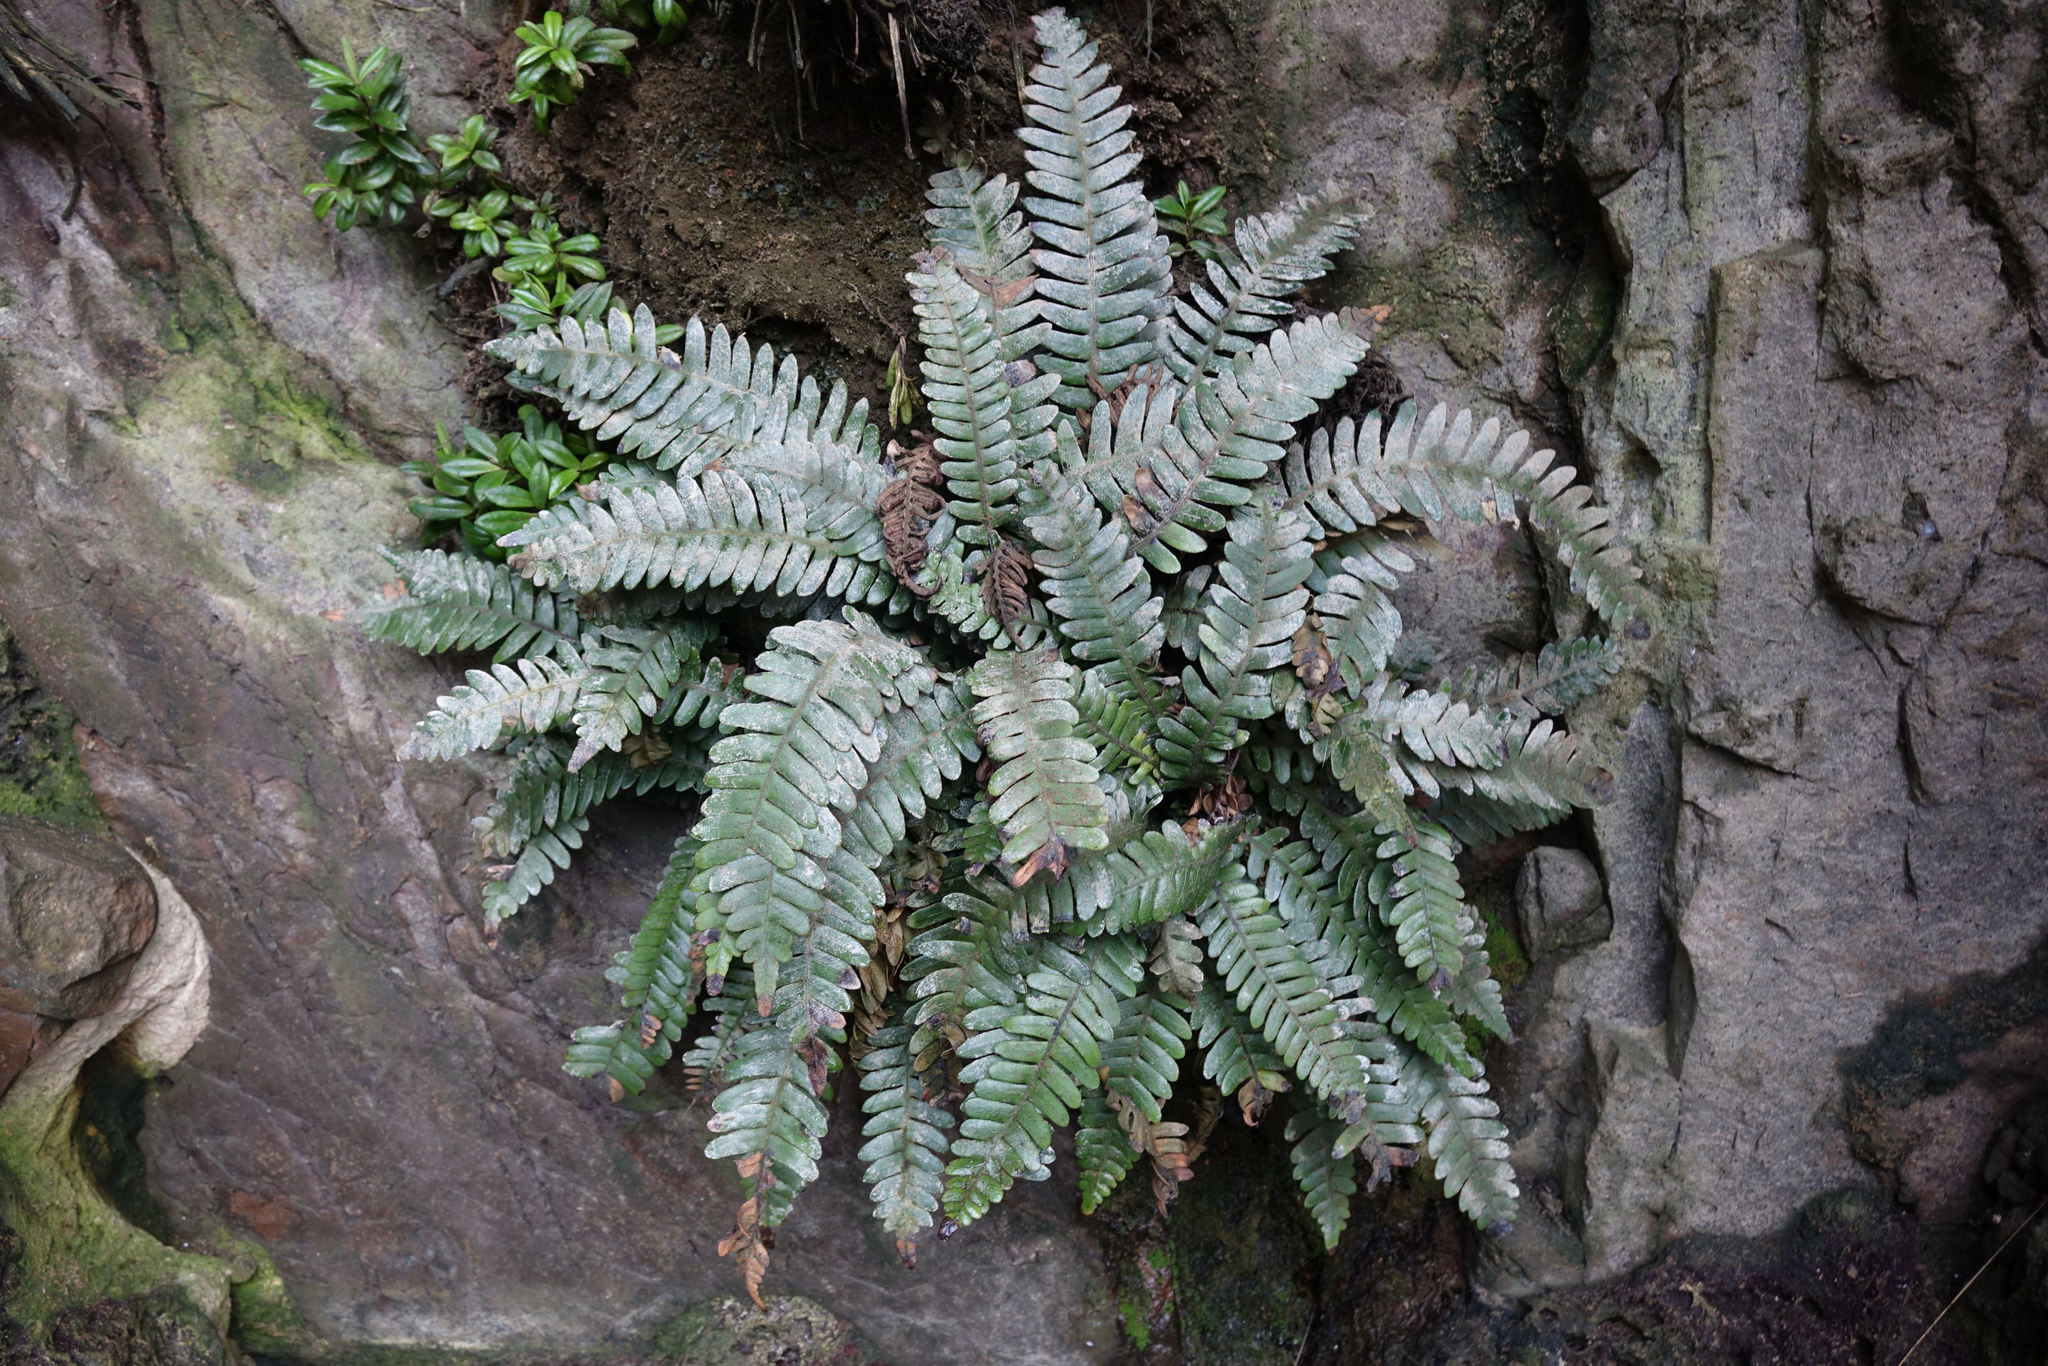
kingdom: Plantae
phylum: Tracheophyta
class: Polypodiopsida
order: Polypodiales
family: Blechnaceae
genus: Austroblechnum
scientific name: Austroblechnum durum
